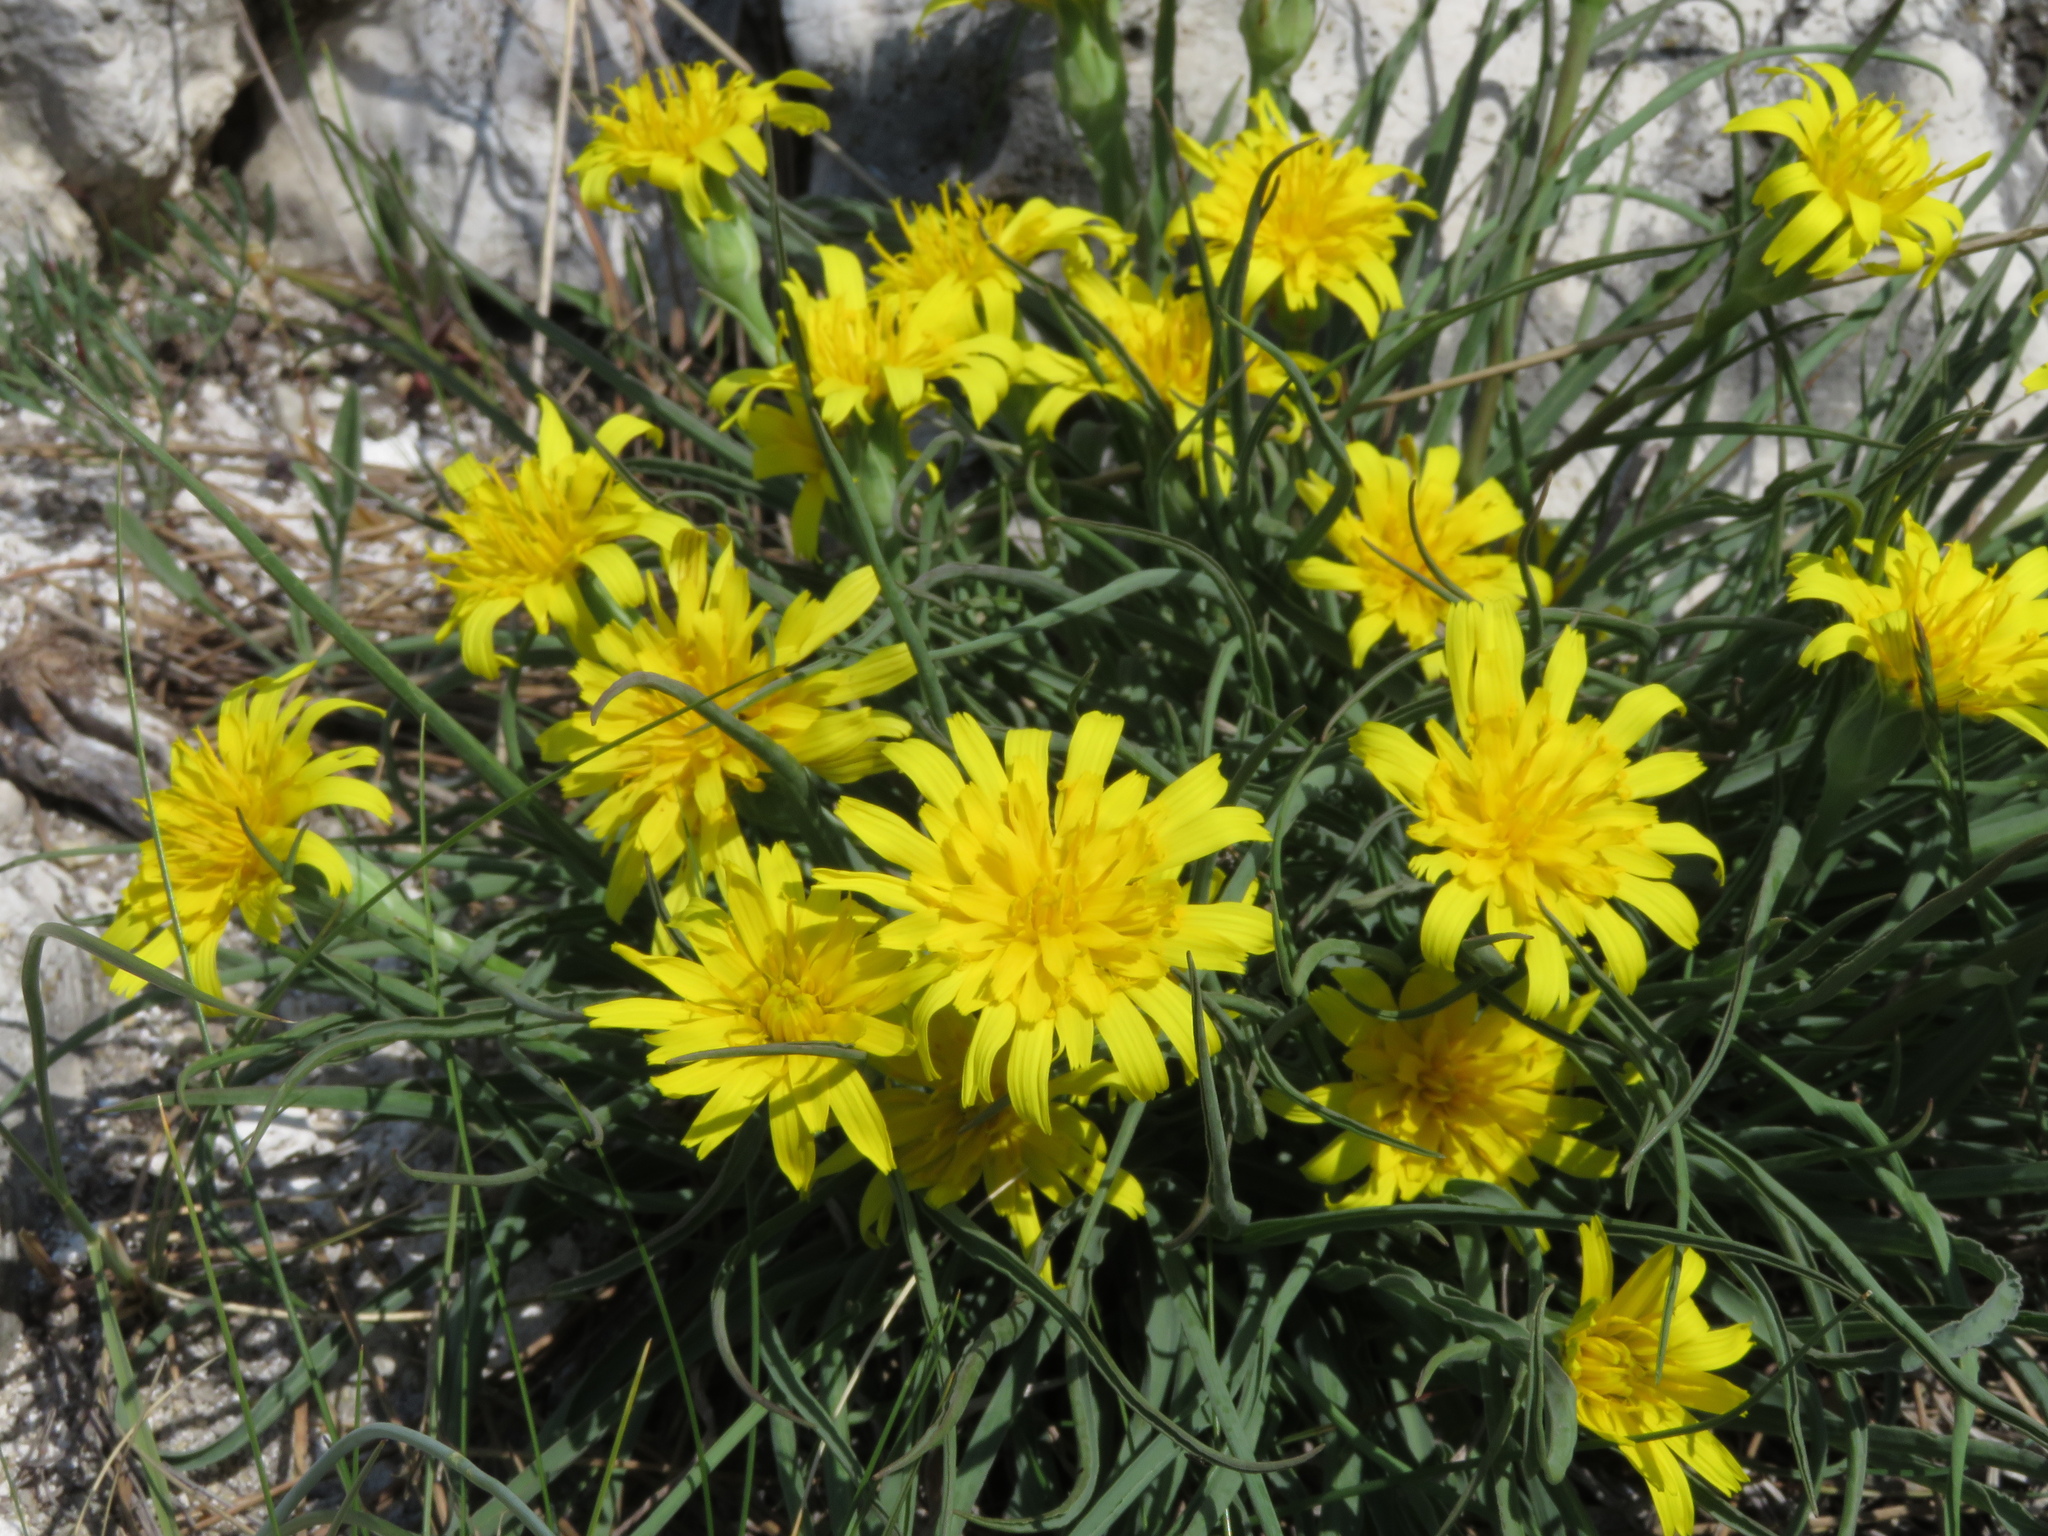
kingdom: Plantae
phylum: Tracheophyta
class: Magnoliopsida
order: Asterales
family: Asteraceae
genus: Takhtajaniantha
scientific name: Takhtajaniantha austriaca
